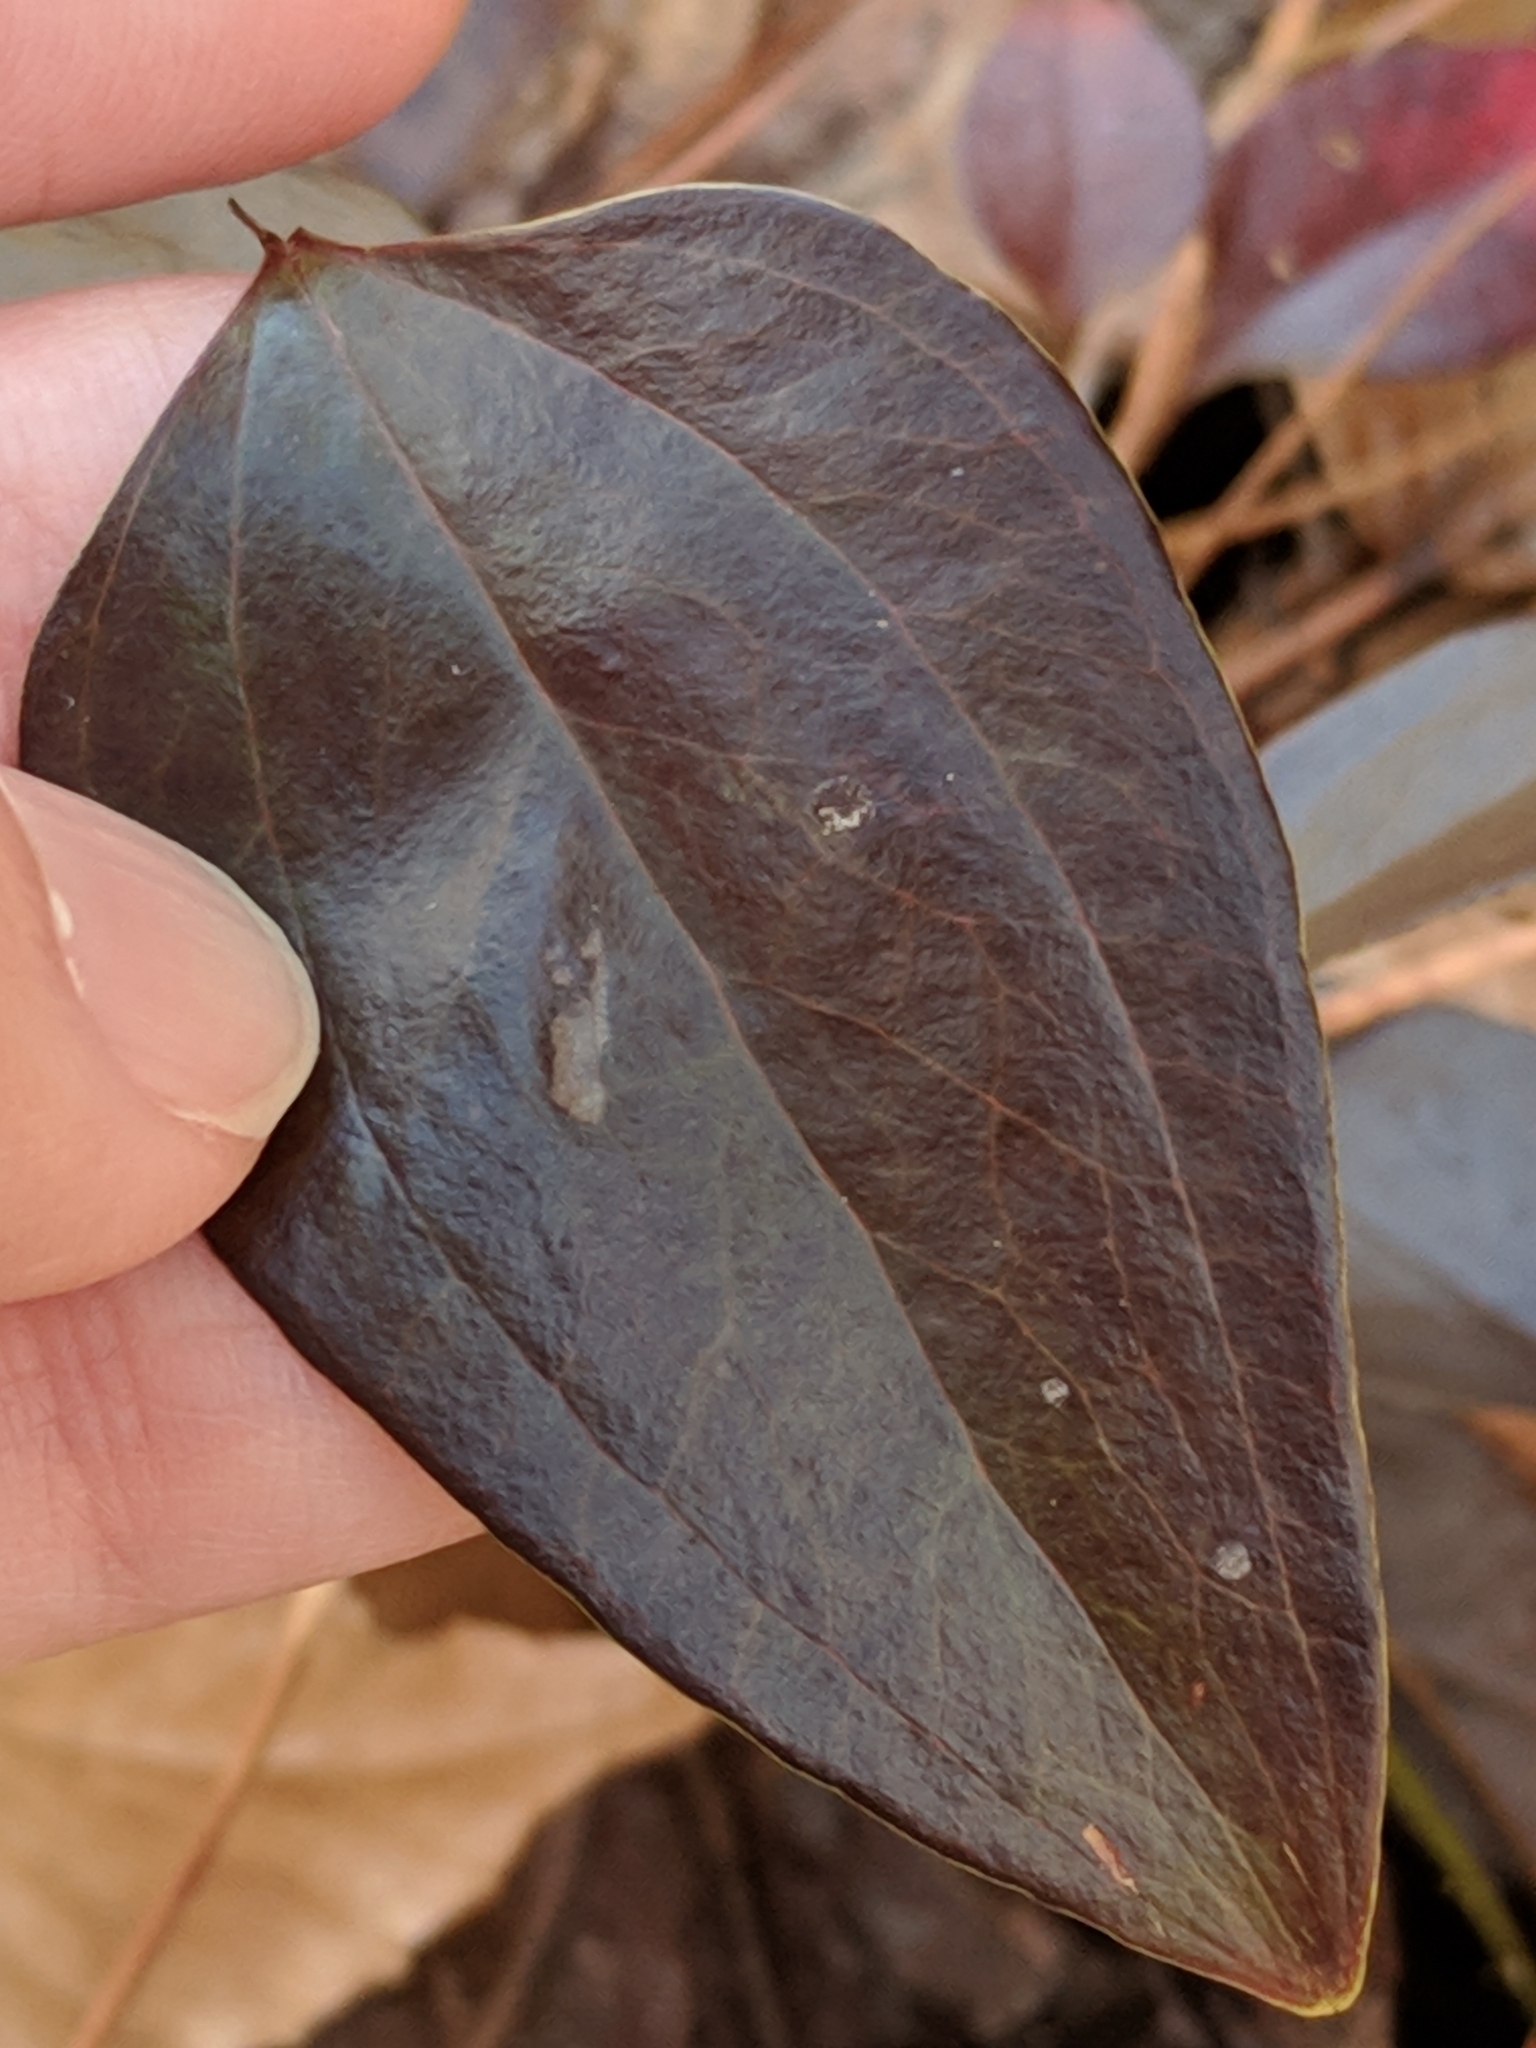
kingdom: Plantae
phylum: Tracheophyta
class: Liliopsida
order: Liliales
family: Smilacaceae
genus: Smilax
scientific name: Smilax glauca
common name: Cat greenbrier
